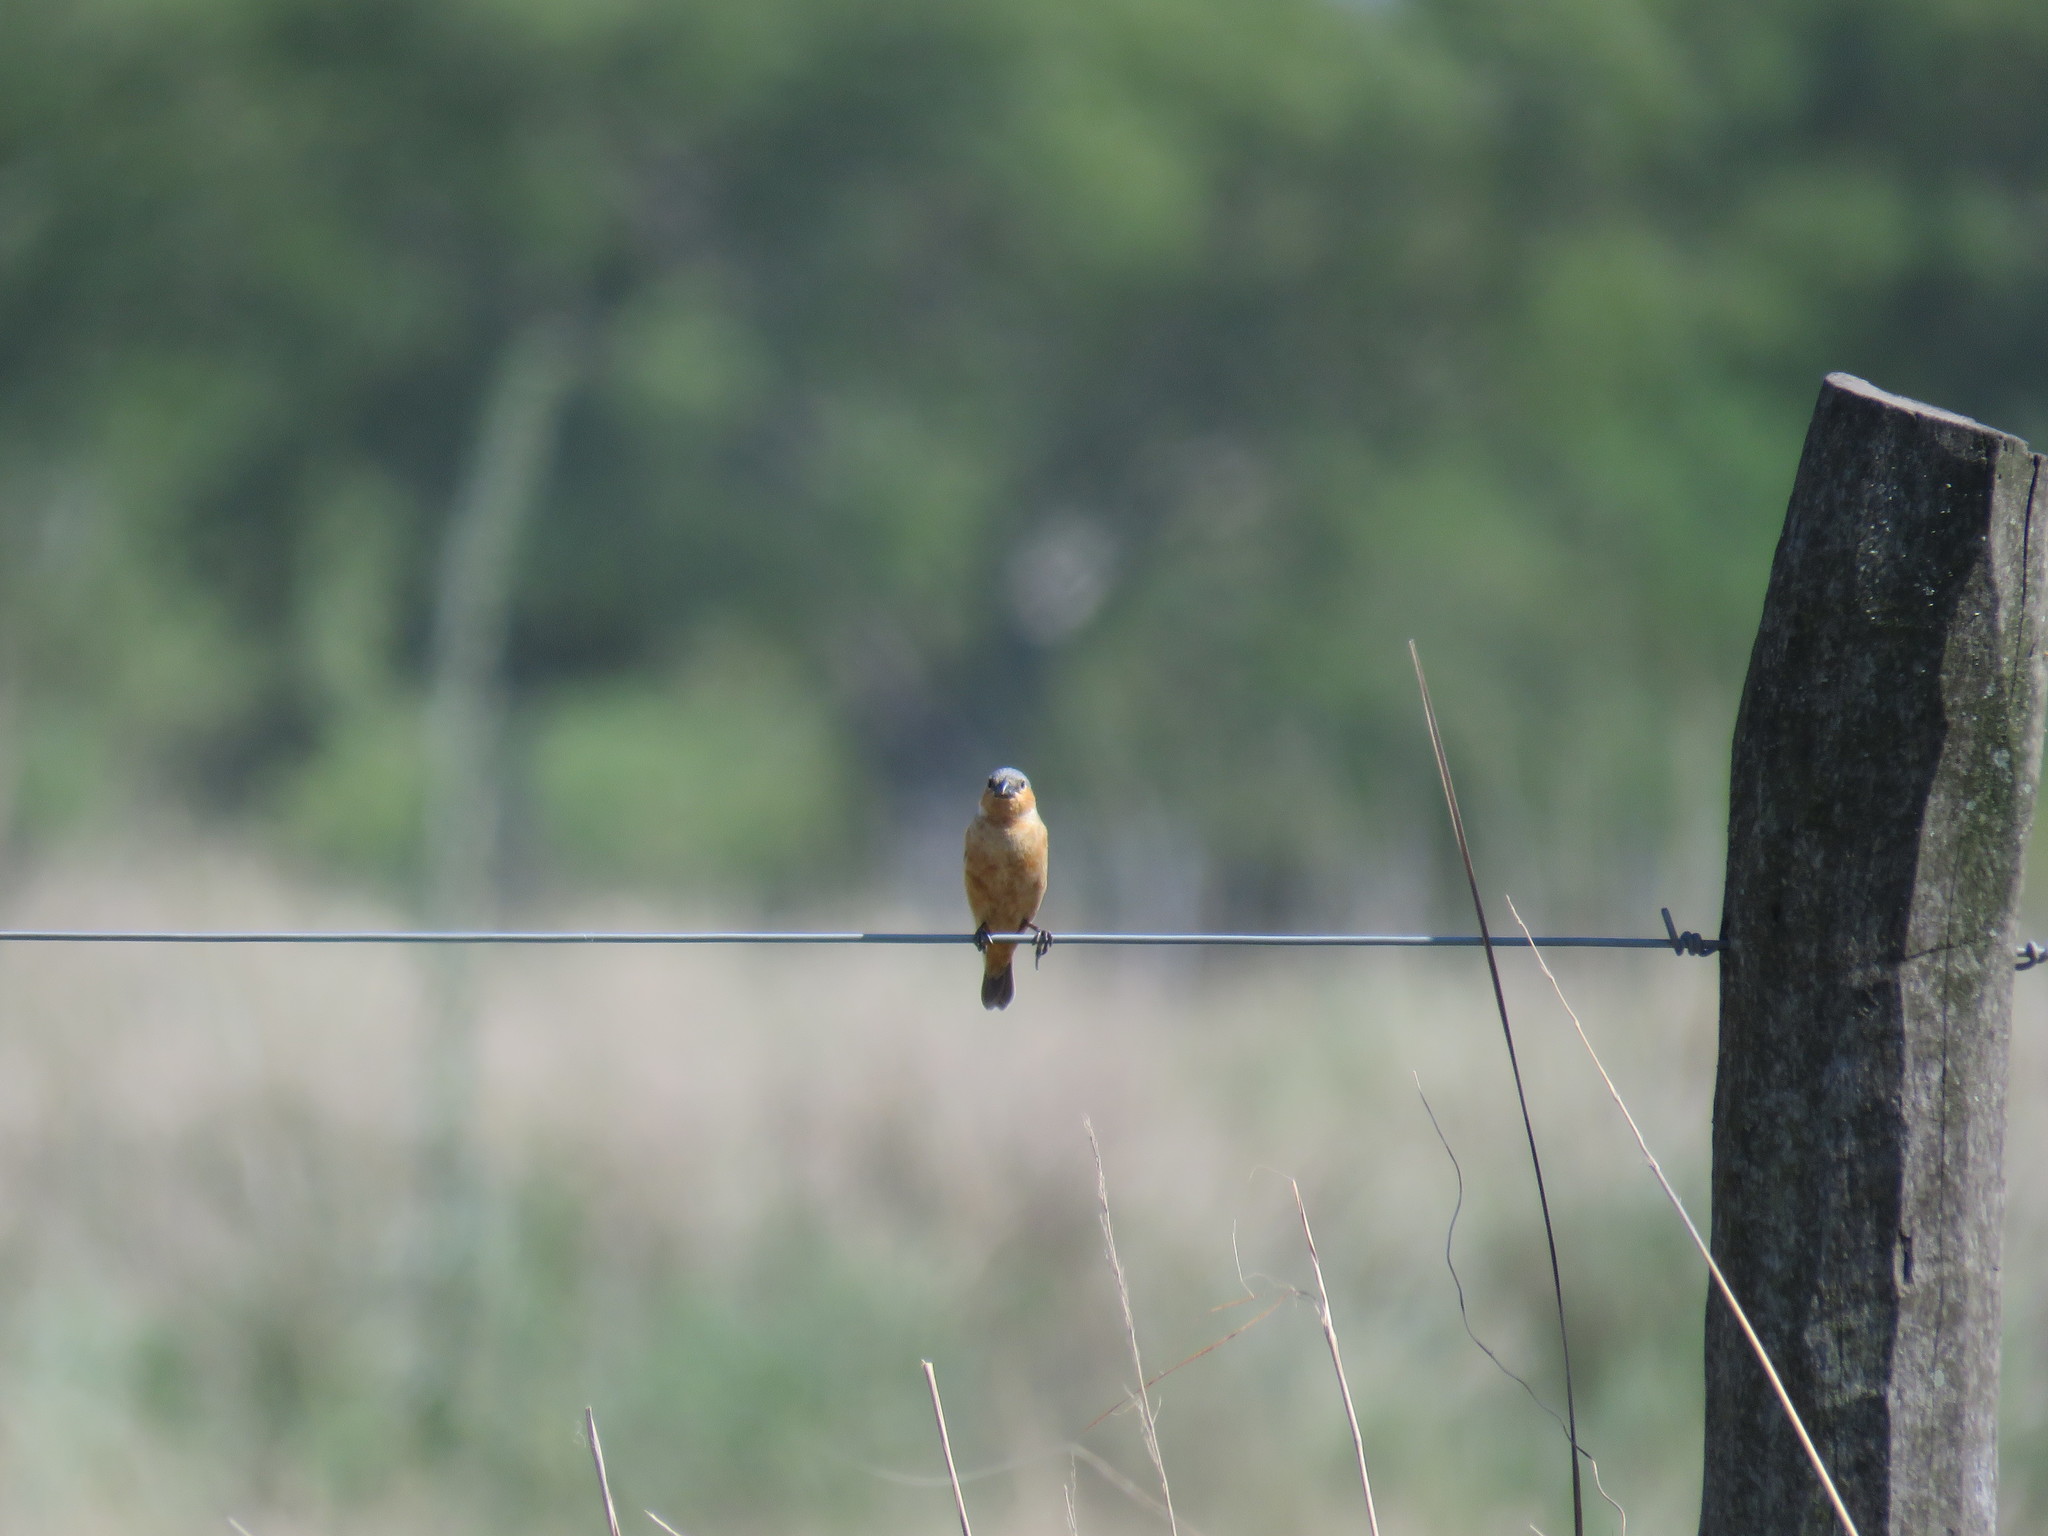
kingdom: Animalia
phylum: Chordata
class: Aves
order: Passeriformes
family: Thraupidae
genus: Sporophila
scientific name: Sporophila hypoxantha
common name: Tawny-bellied seedeater
